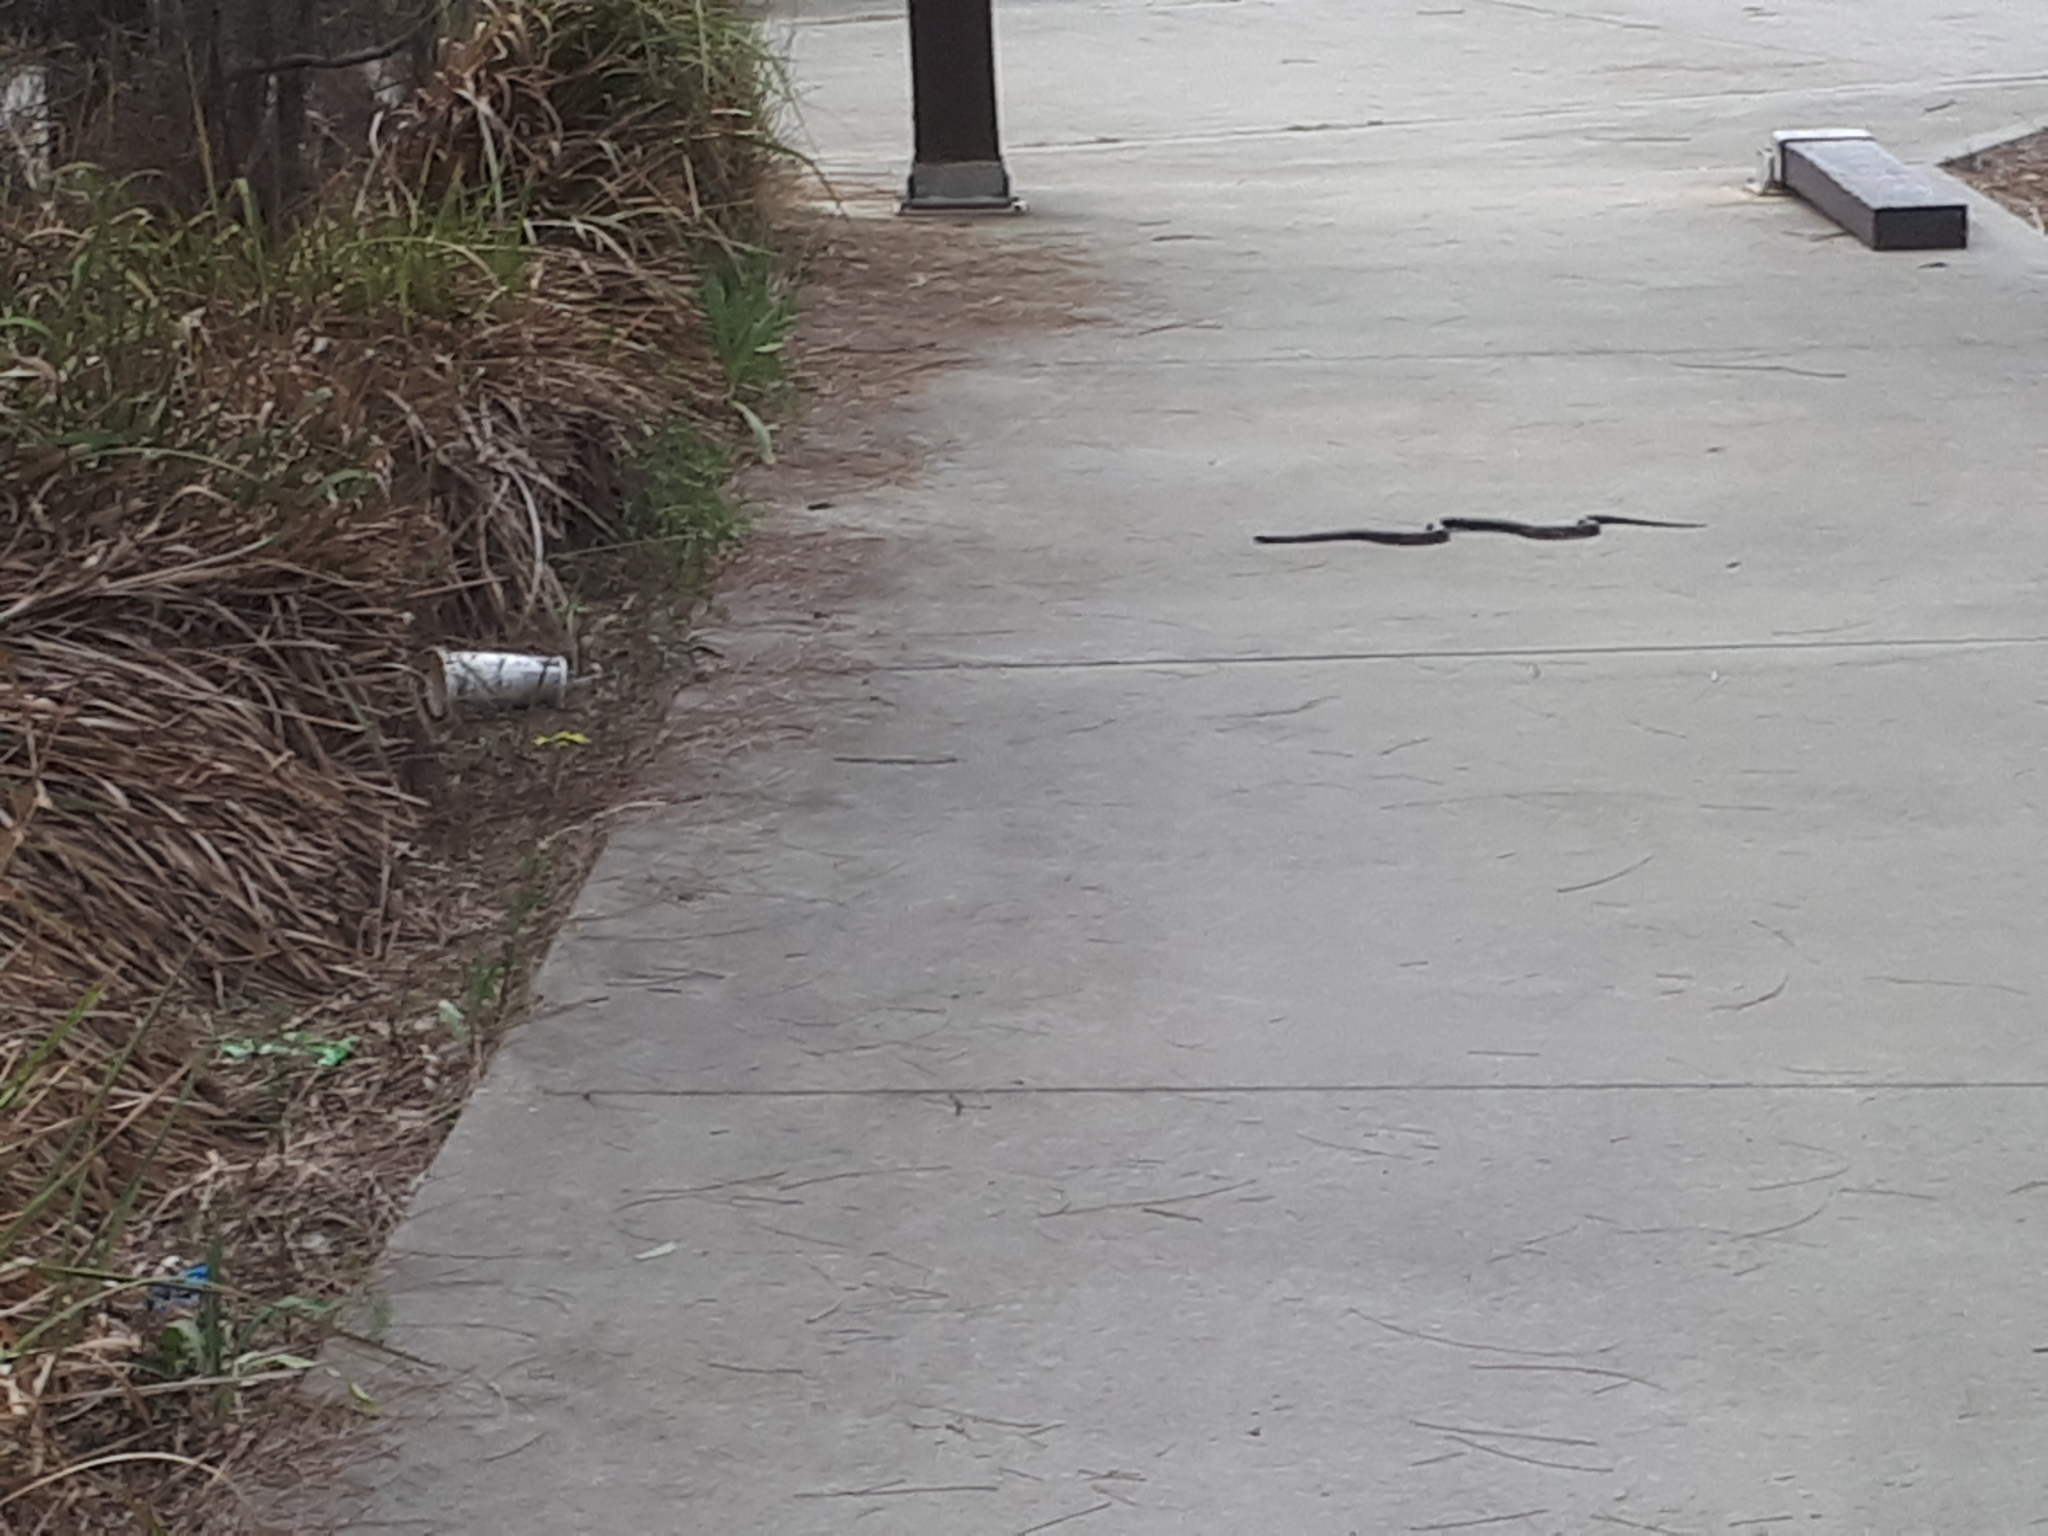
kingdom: Animalia
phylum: Chordata
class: Squamata
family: Elapidae
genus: Pseudechis
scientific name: Pseudechis porphyriacus
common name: Australian black snake
